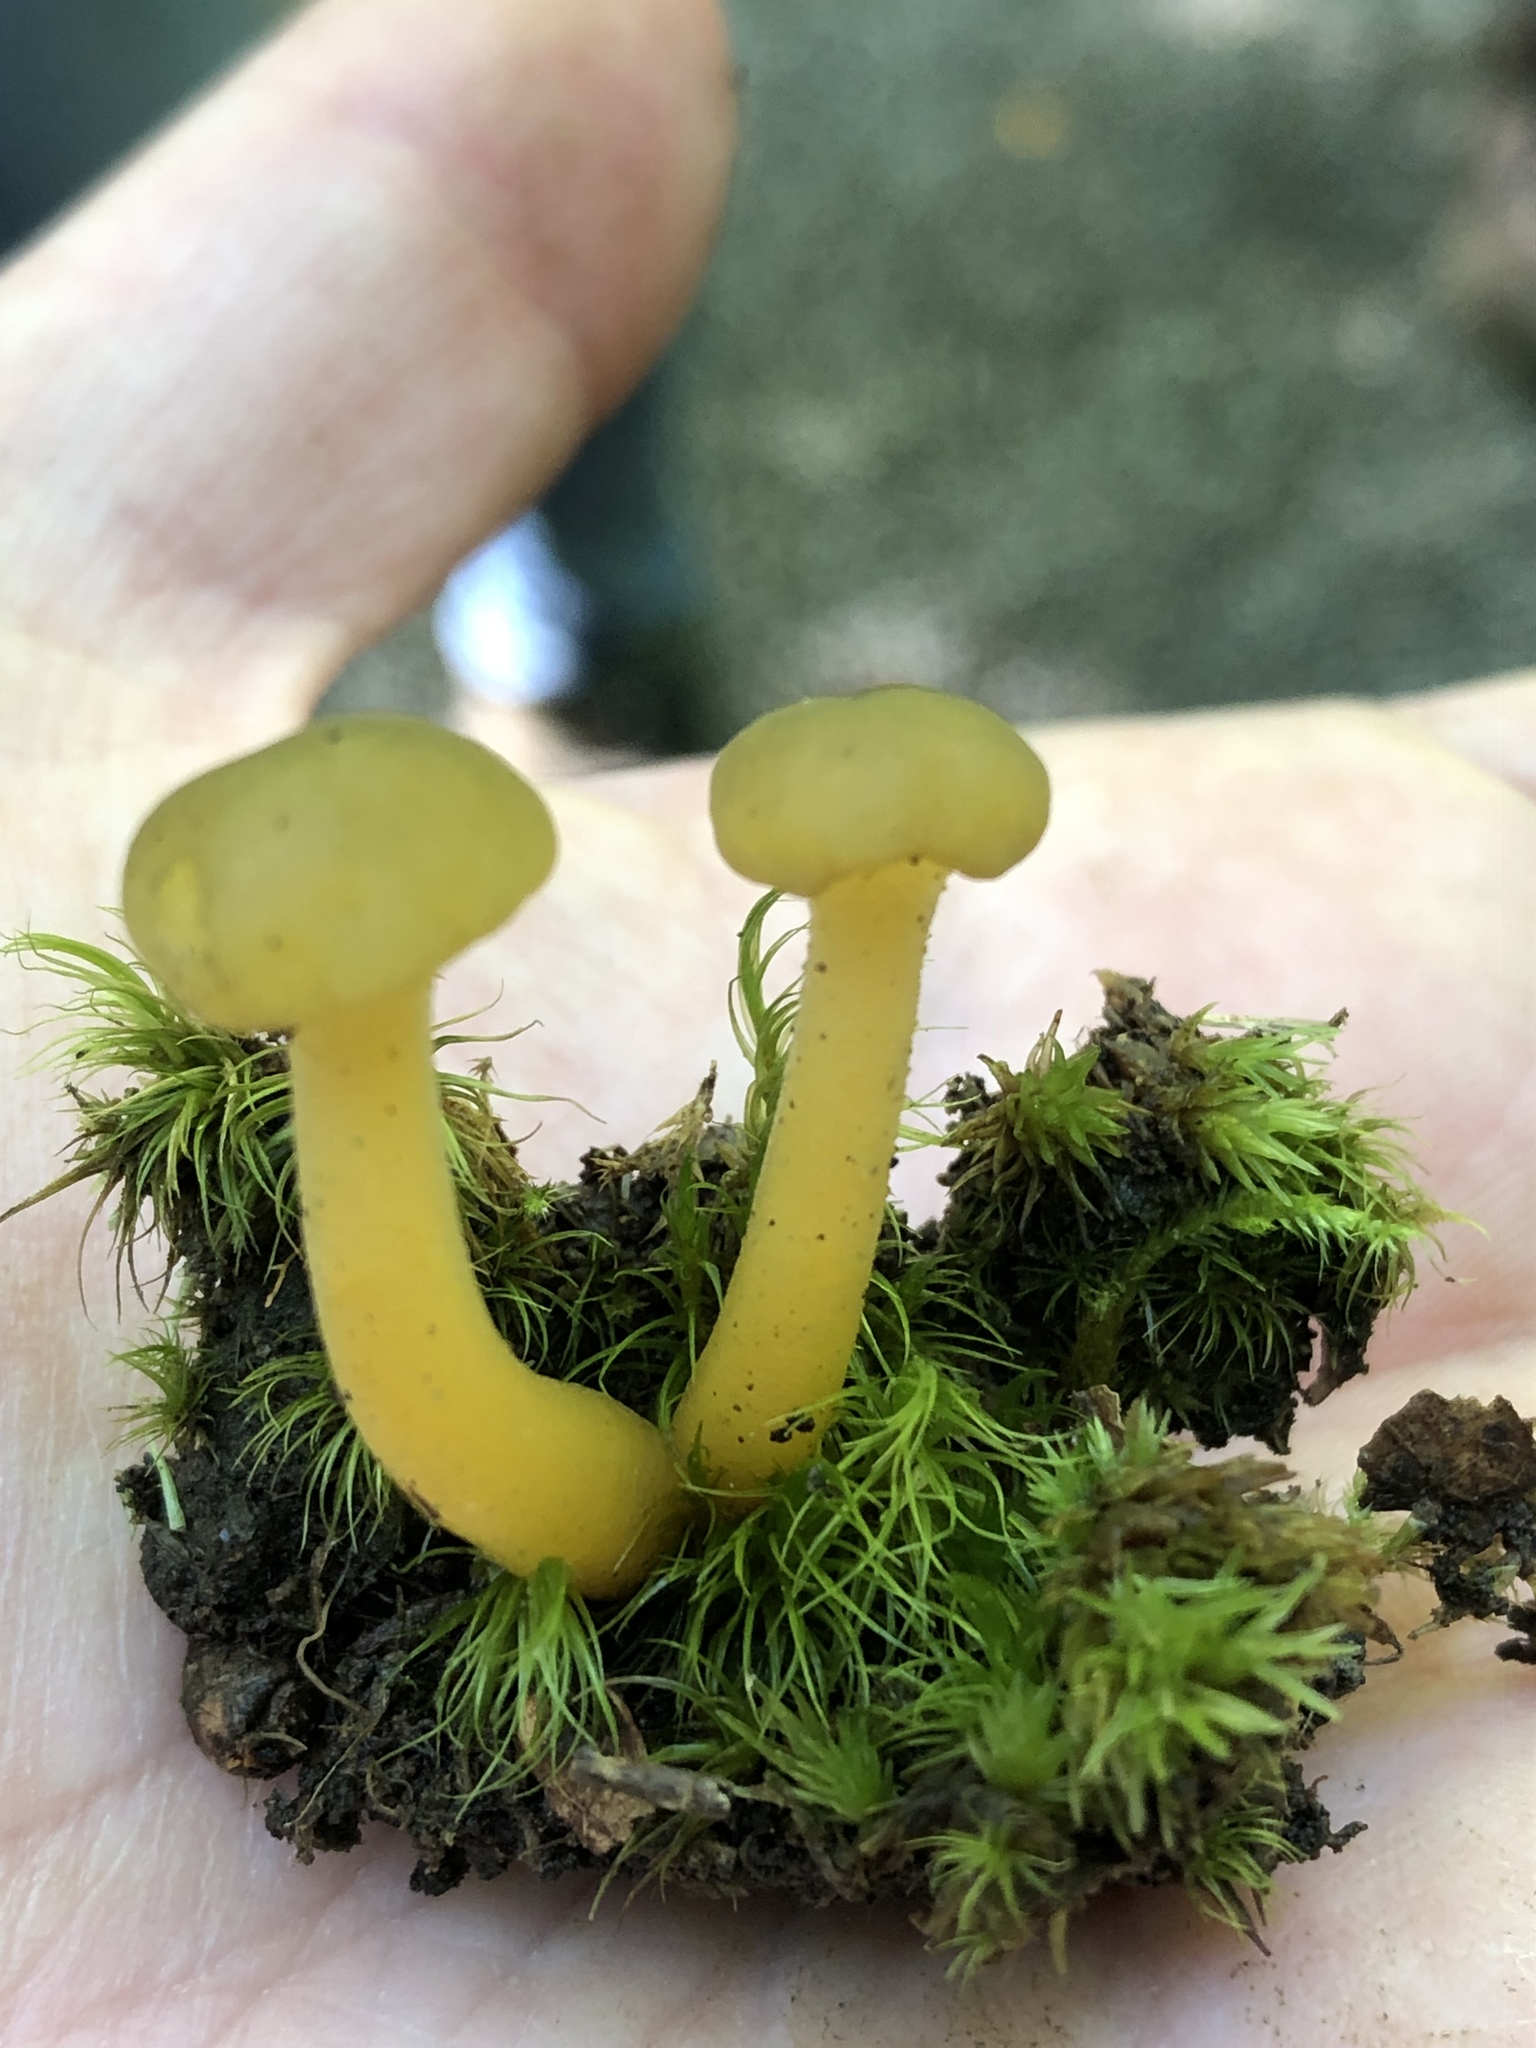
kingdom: Fungi
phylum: Ascomycota
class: Leotiomycetes
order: Leotiales
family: Leotiaceae
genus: Leotia
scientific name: Leotia lubrica
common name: Jellybaby
